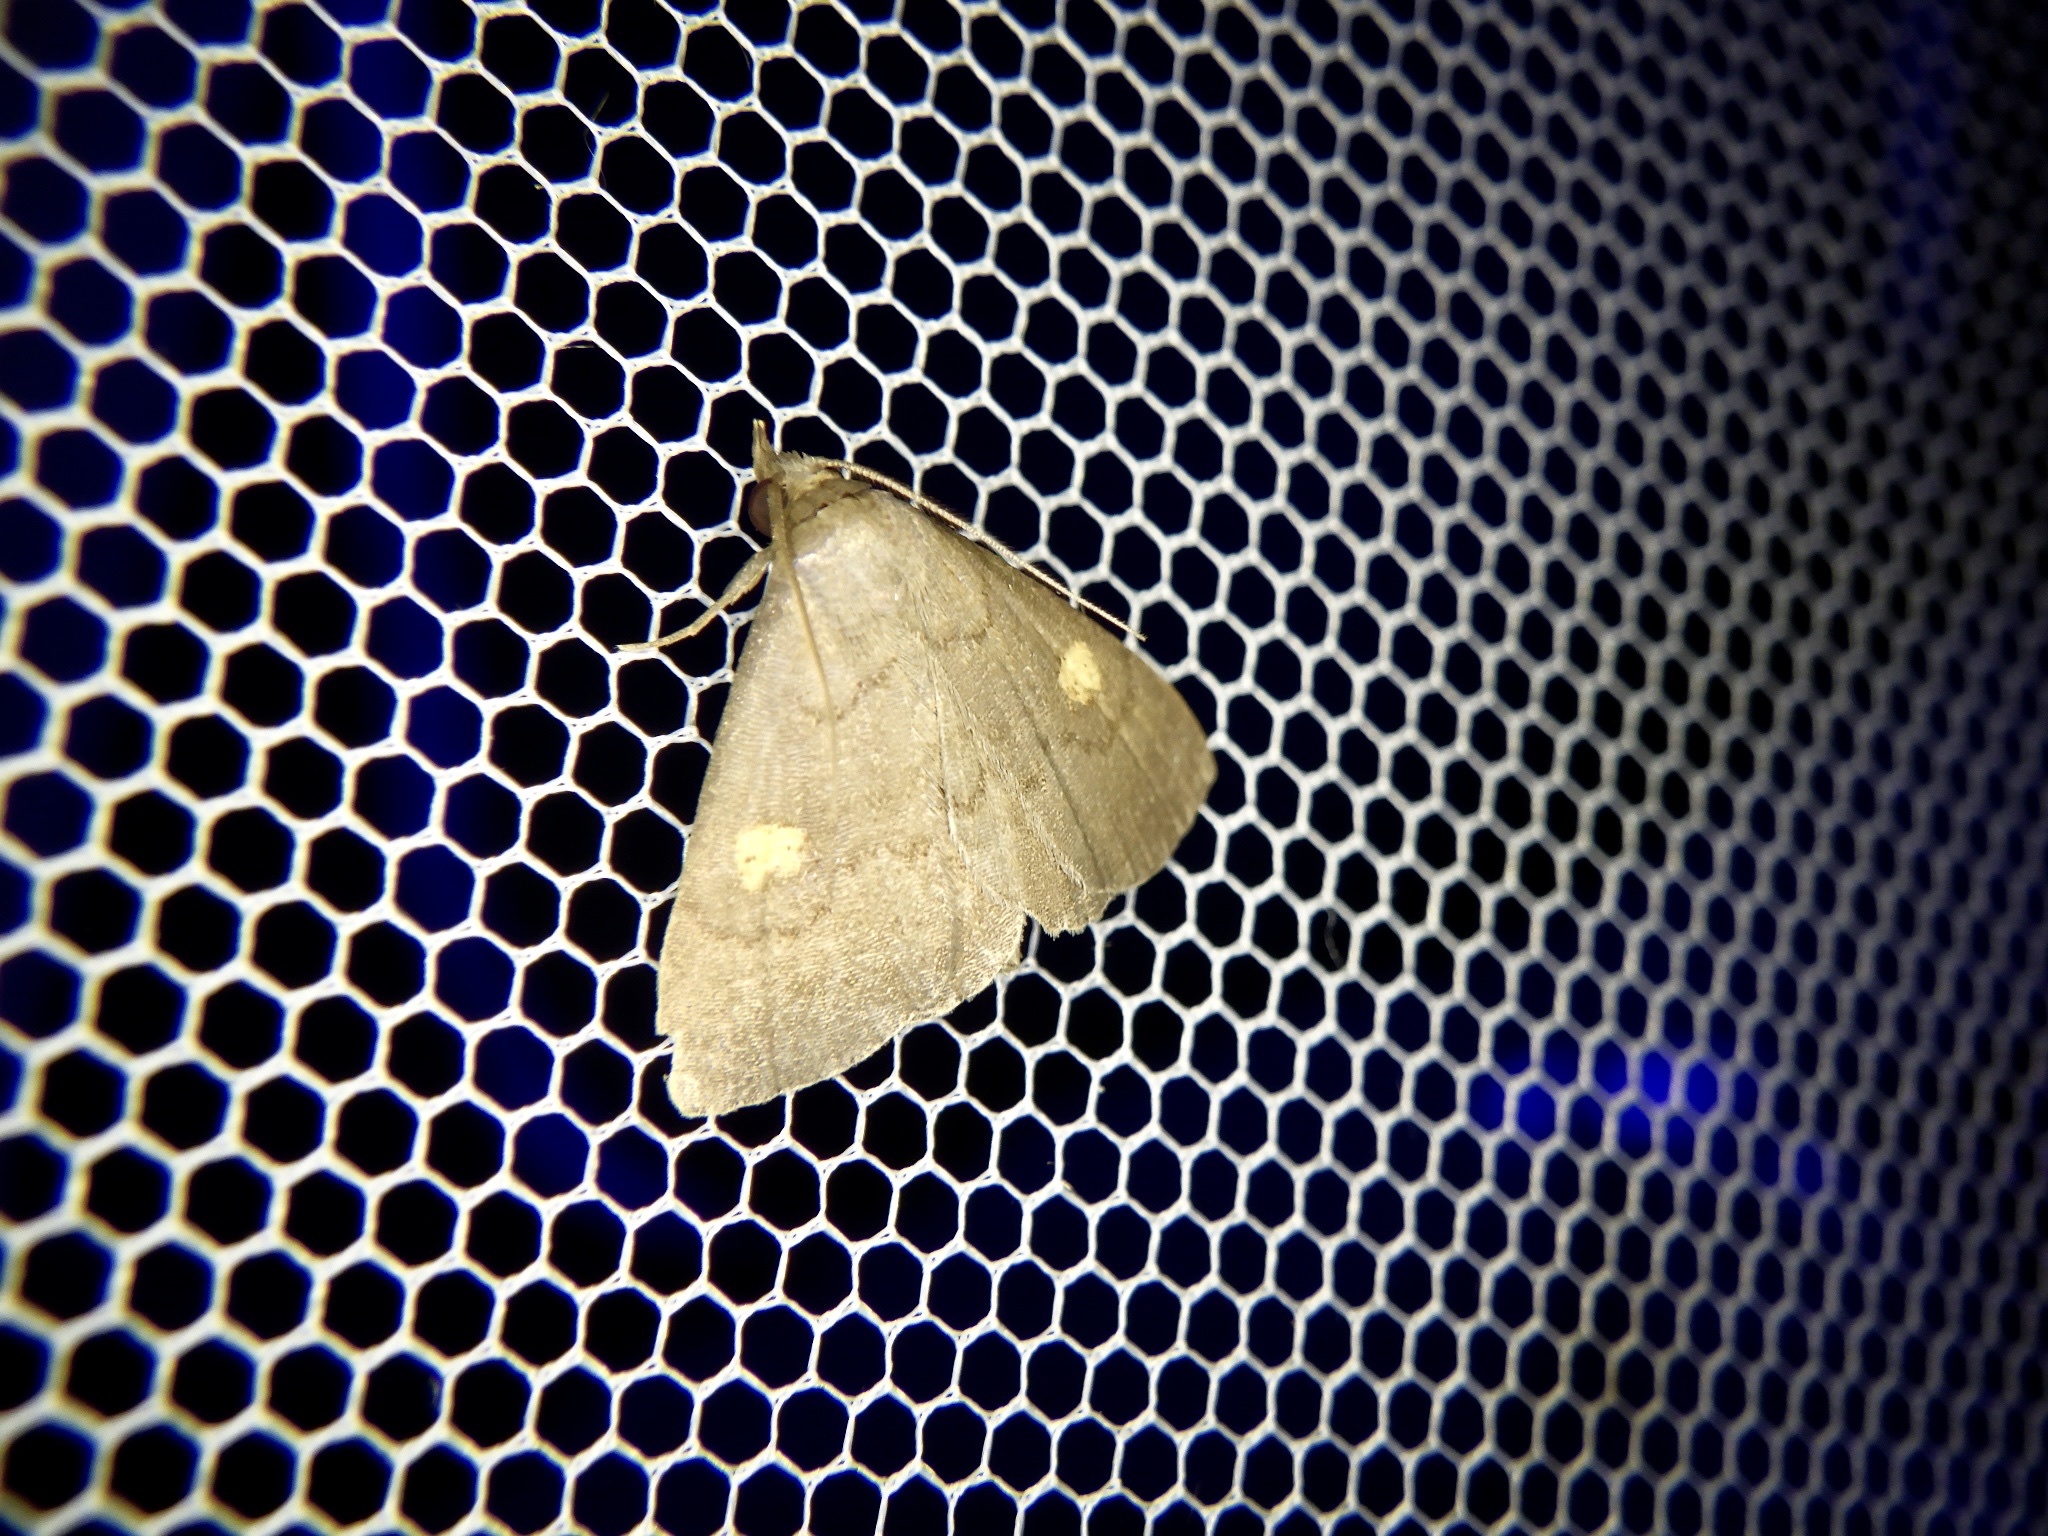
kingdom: Animalia
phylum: Arthropoda
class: Insecta
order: Lepidoptera
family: Erebidae
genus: Paracolax
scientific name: Paracolax sugii
